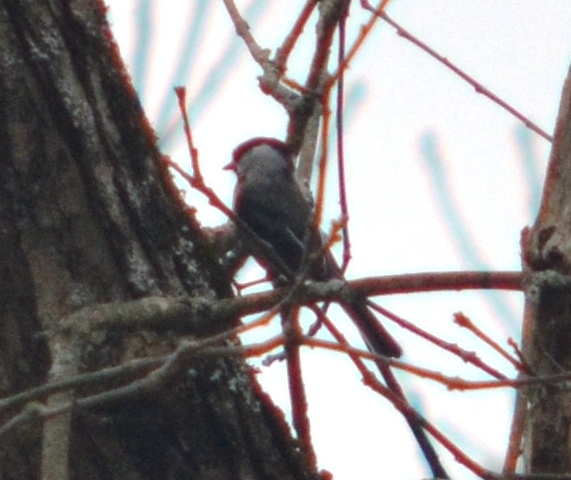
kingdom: Animalia
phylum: Chordata
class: Aves
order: Passeriformes
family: Paridae
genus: Poecile
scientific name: Poecile atricapillus
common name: Black-capped chickadee
